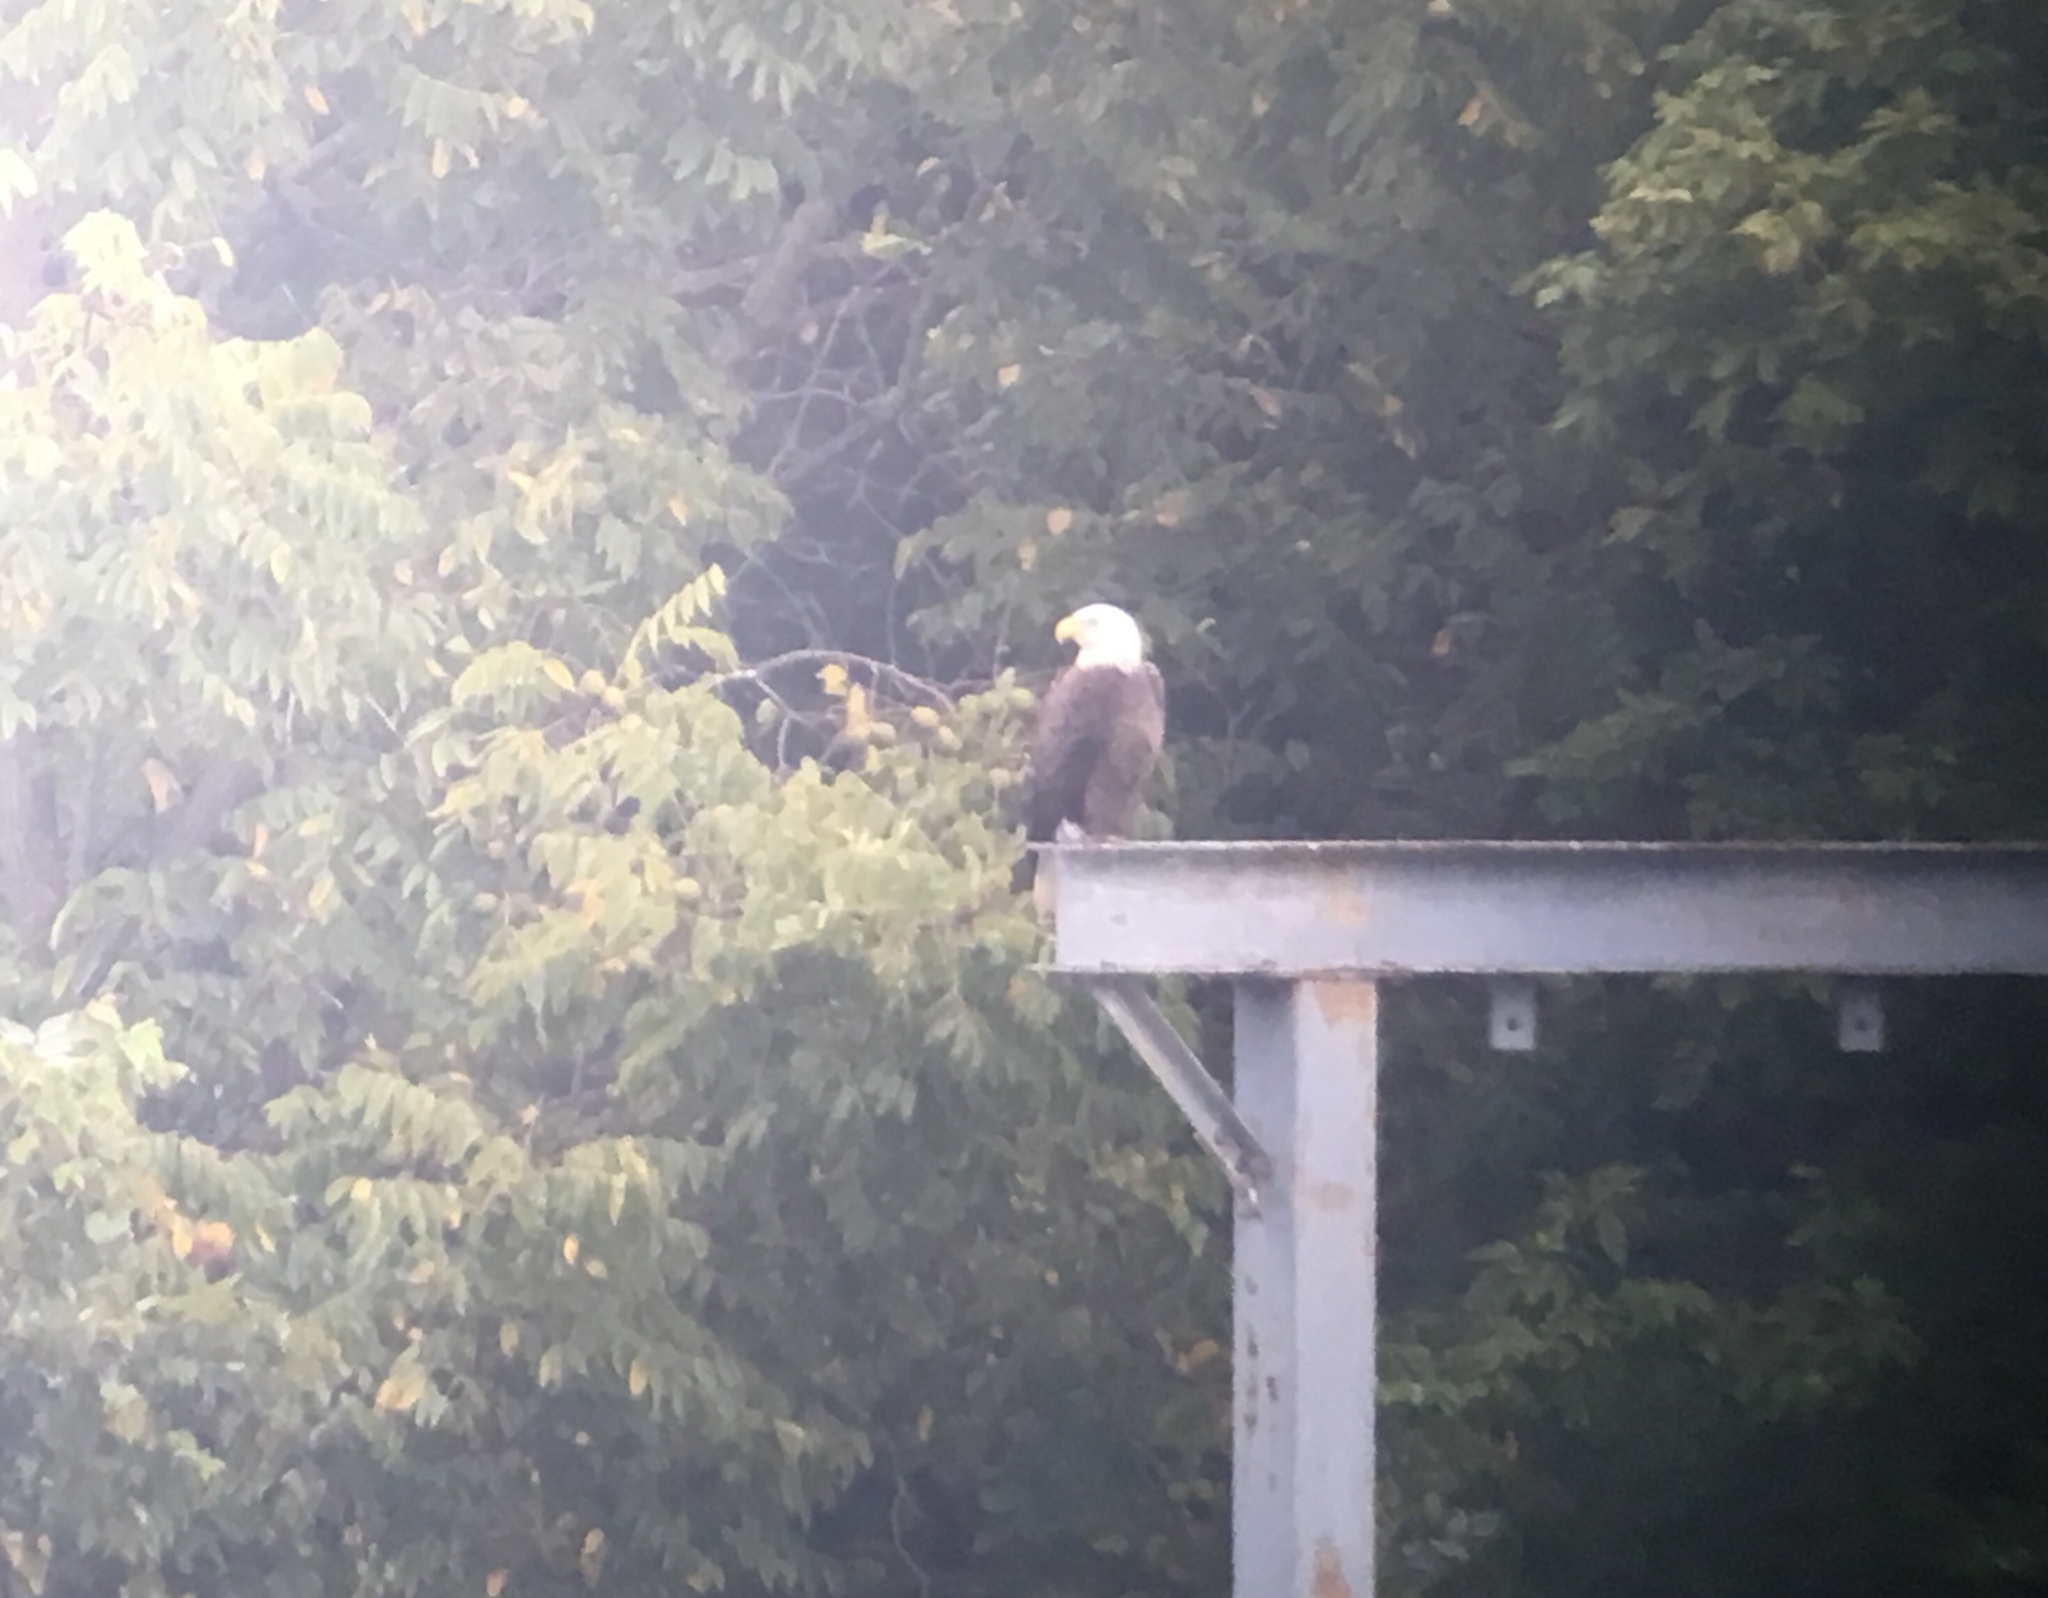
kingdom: Animalia
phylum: Chordata
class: Aves
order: Accipitriformes
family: Accipitridae
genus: Haliaeetus
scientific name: Haliaeetus leucocephalus
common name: Bald eagle
